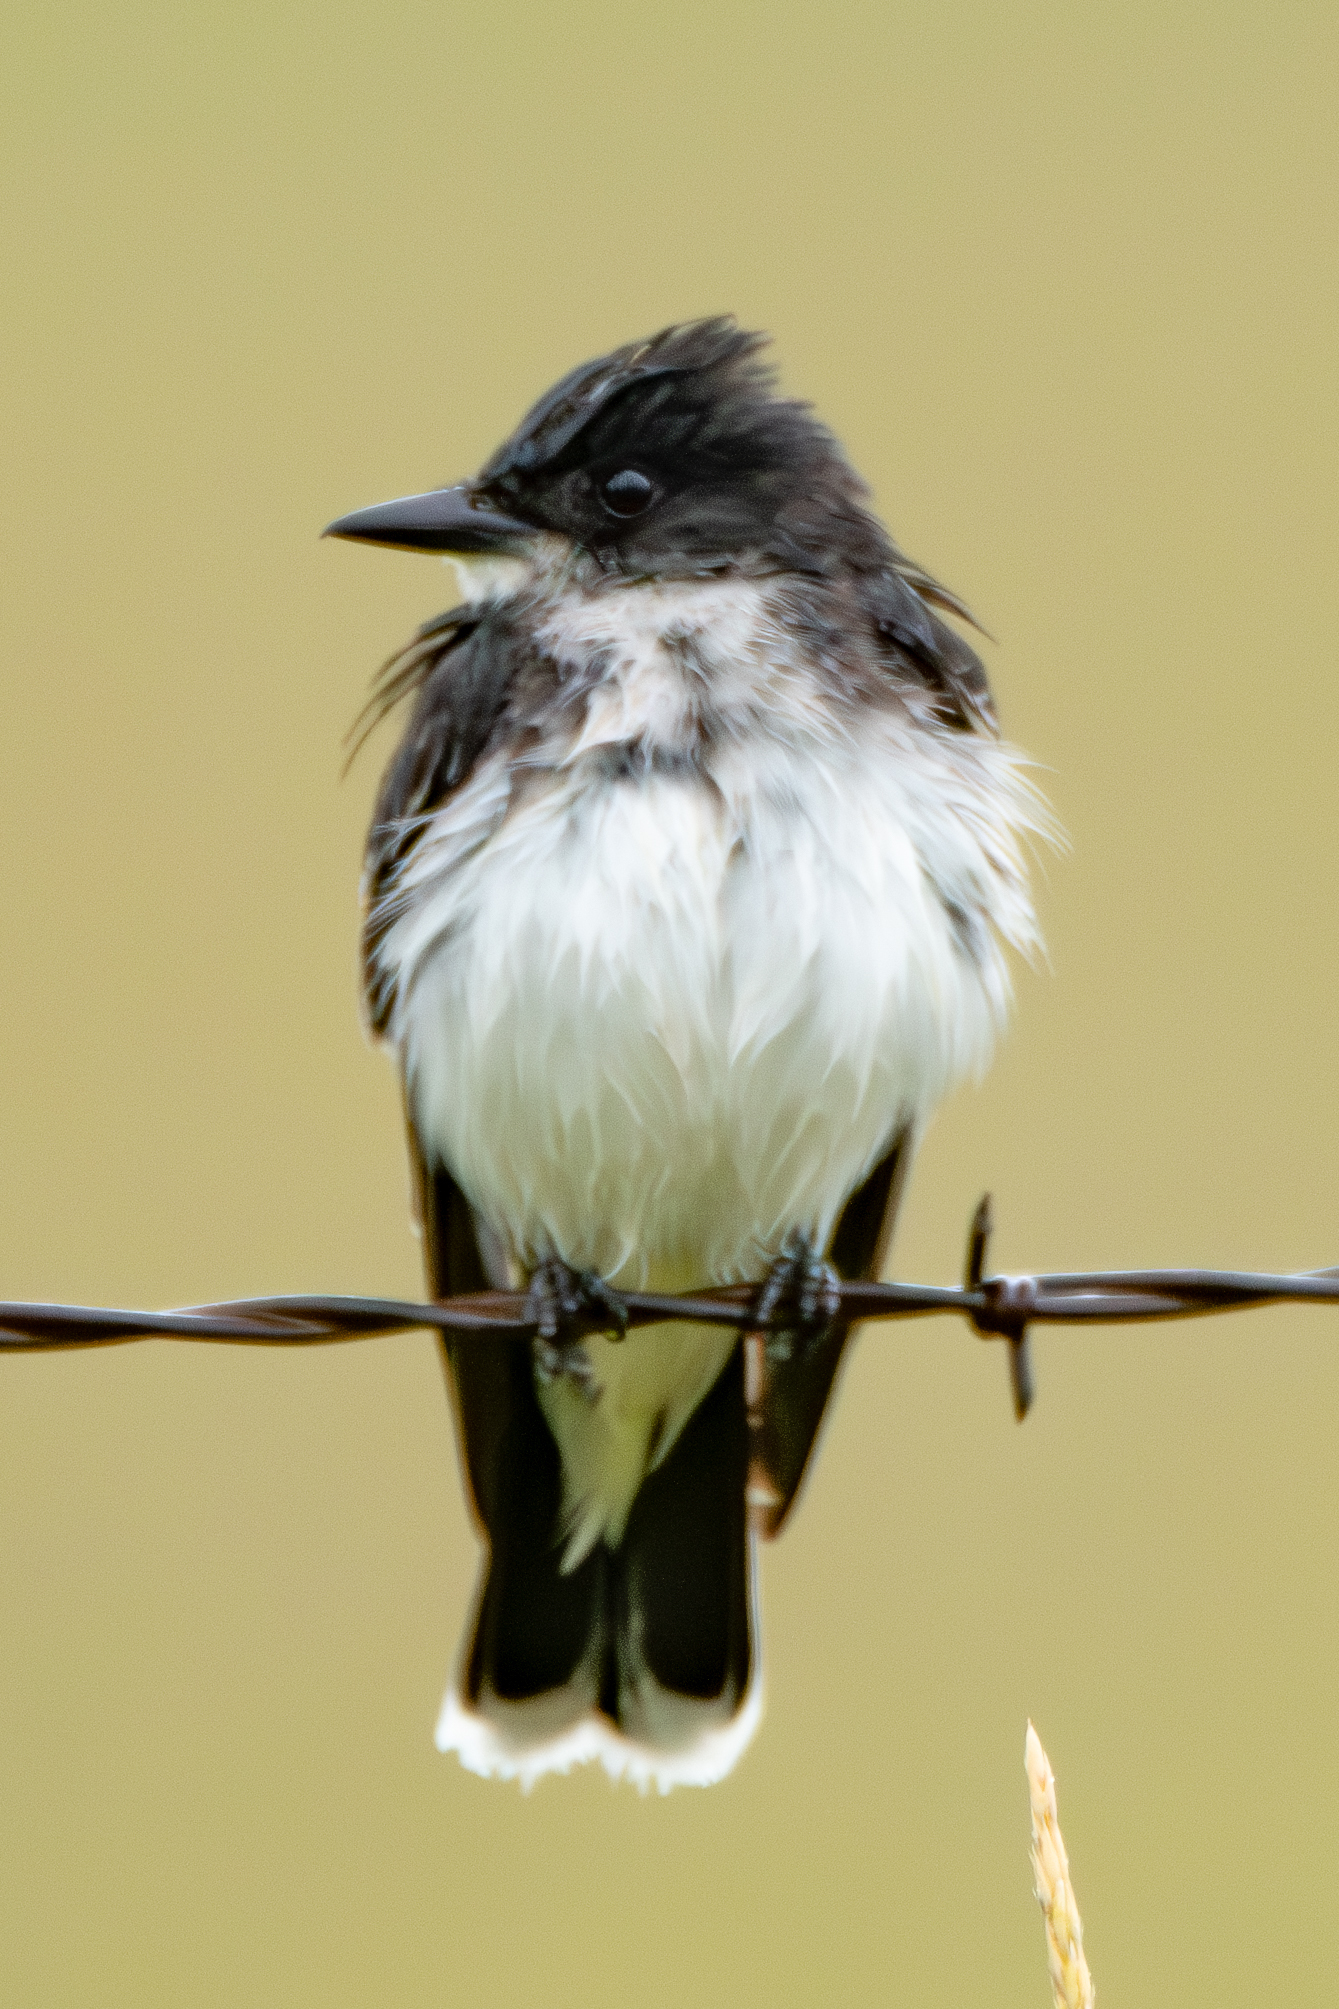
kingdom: Animalia
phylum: Chordata
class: Aves
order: Passeriformes
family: Tyrannidae
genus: Tyrannus
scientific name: Tyrannus tyrannus
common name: Eastern kingbird
